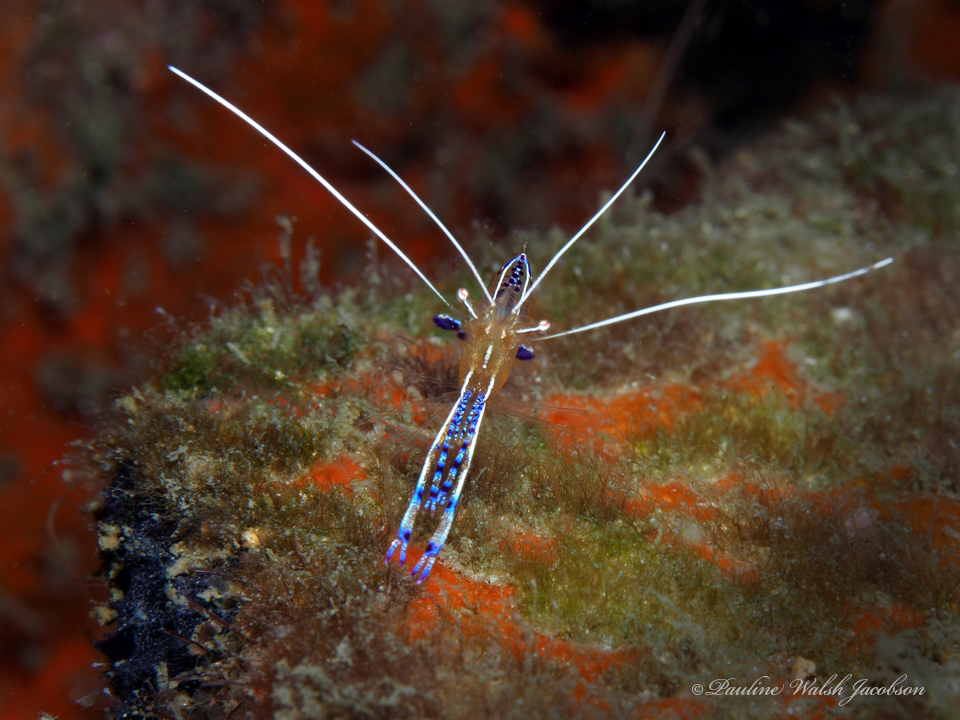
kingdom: Animalia
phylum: Arthropoda
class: Malacostraca
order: Decapoda
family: Palaemonidae
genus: Ancylomenes
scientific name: Ancylomenes pedersoni
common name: Pederson's cleaning shrimp
